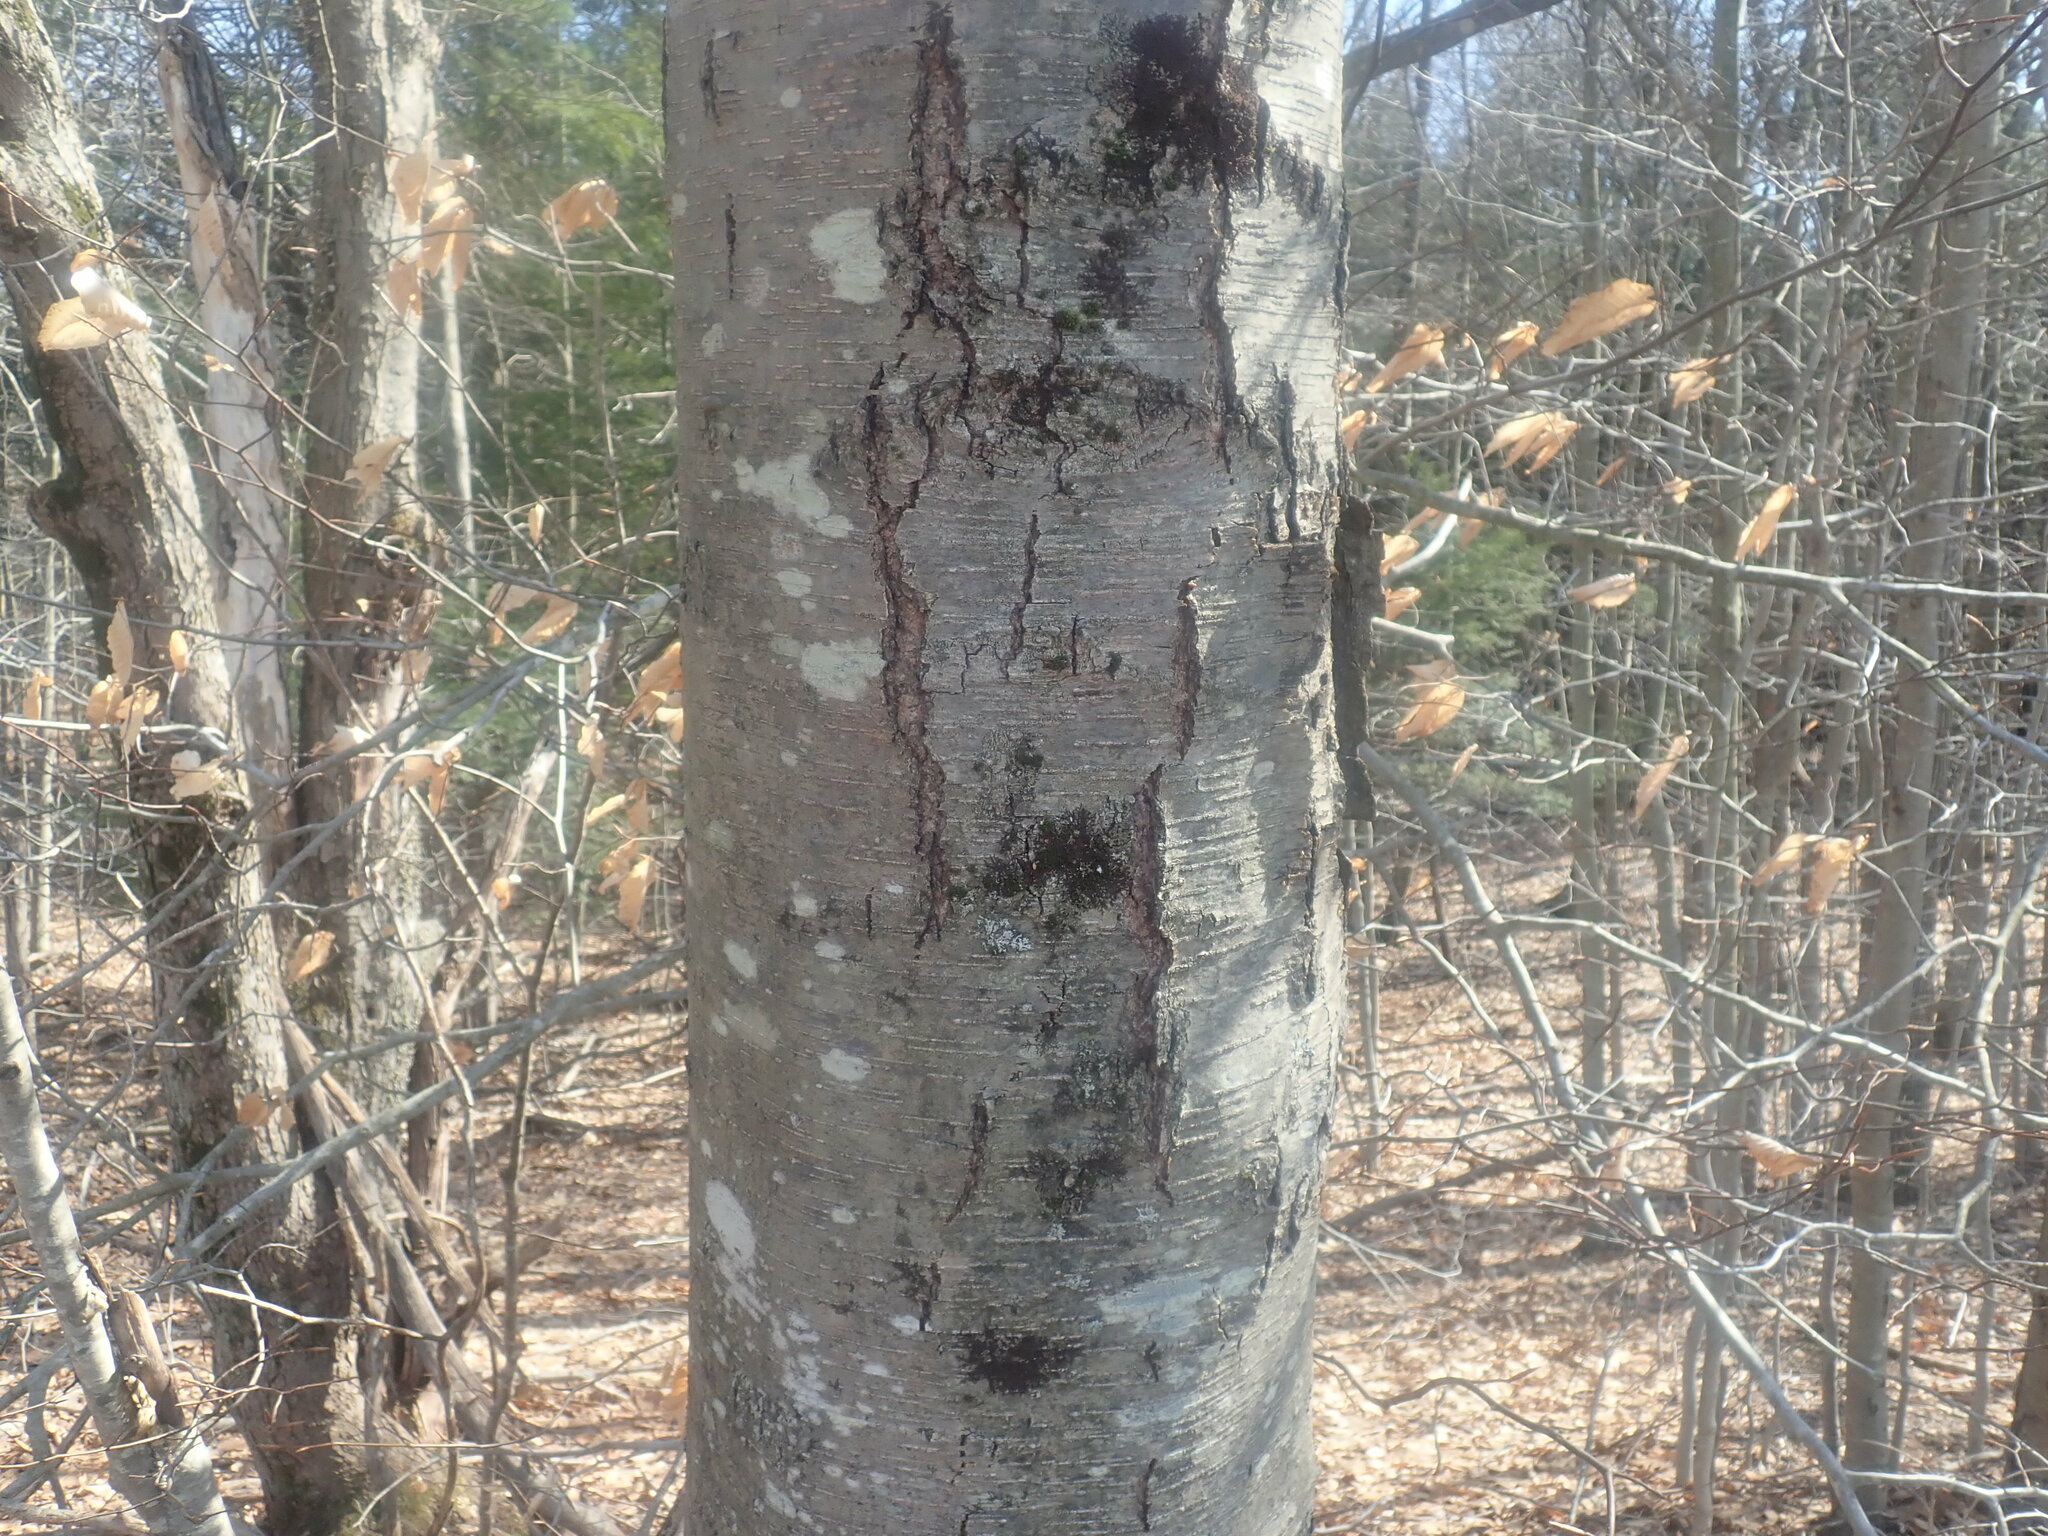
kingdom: Plantae
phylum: Tracheophyta
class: Magnoliopsida
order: Fagales
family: Betulaceae
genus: Betula
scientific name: Betula lenta
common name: Black birch
